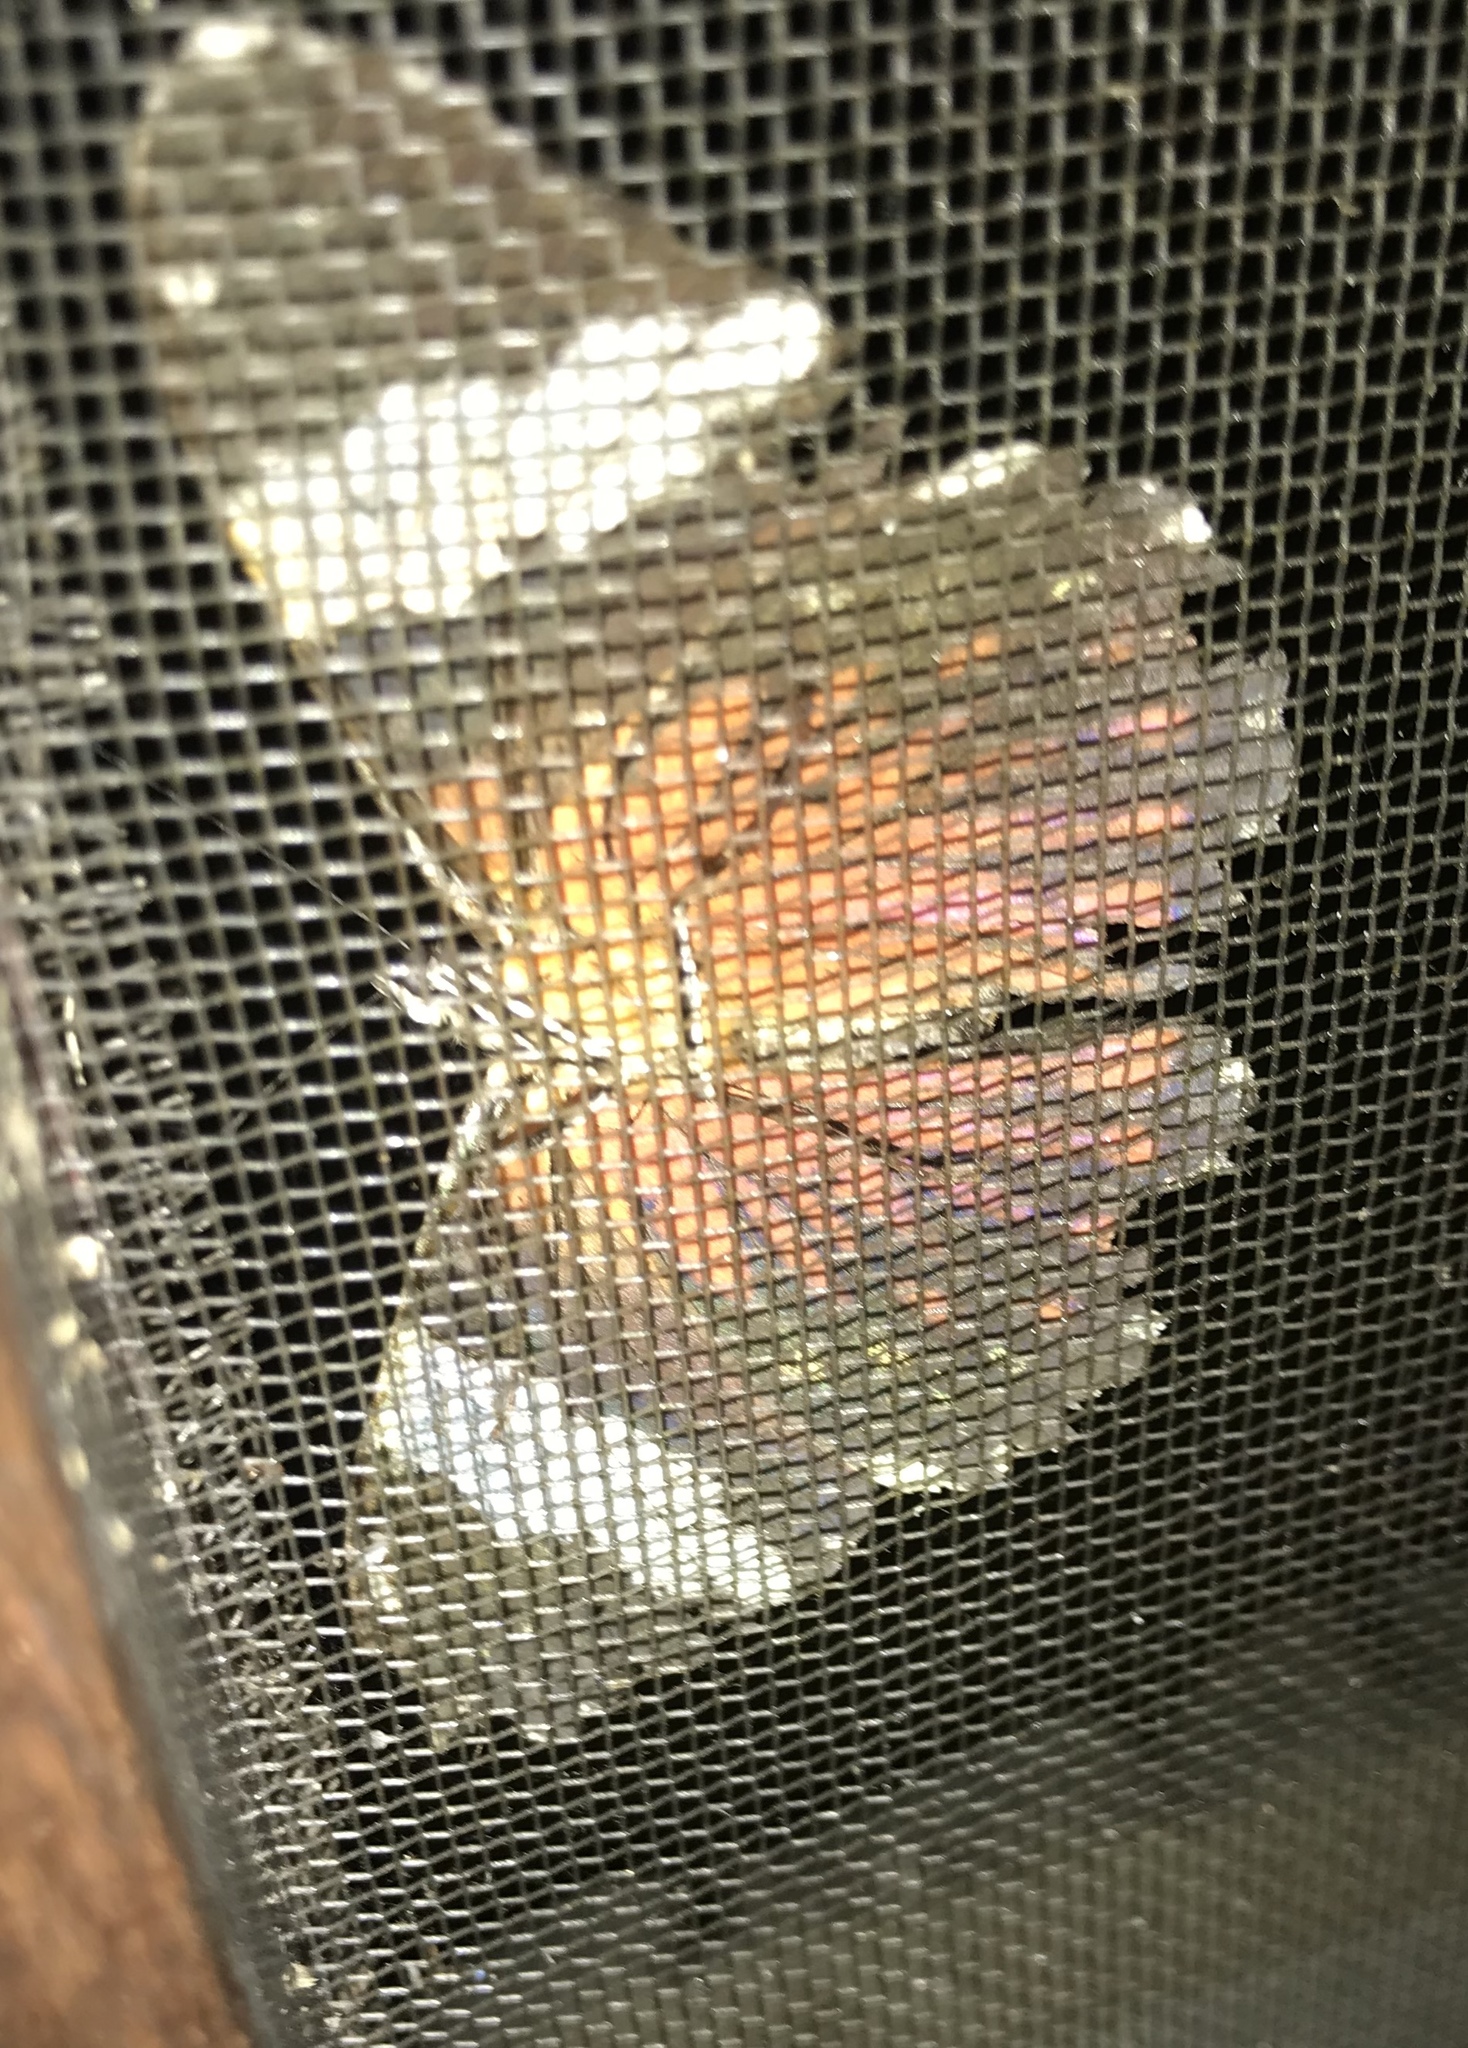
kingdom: Animalia
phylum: Arthropoda
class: Insecta
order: Lepidoptera
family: Nymphalidae
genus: Hamadryas
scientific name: Hamadryas amphinome
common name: Red cracker
